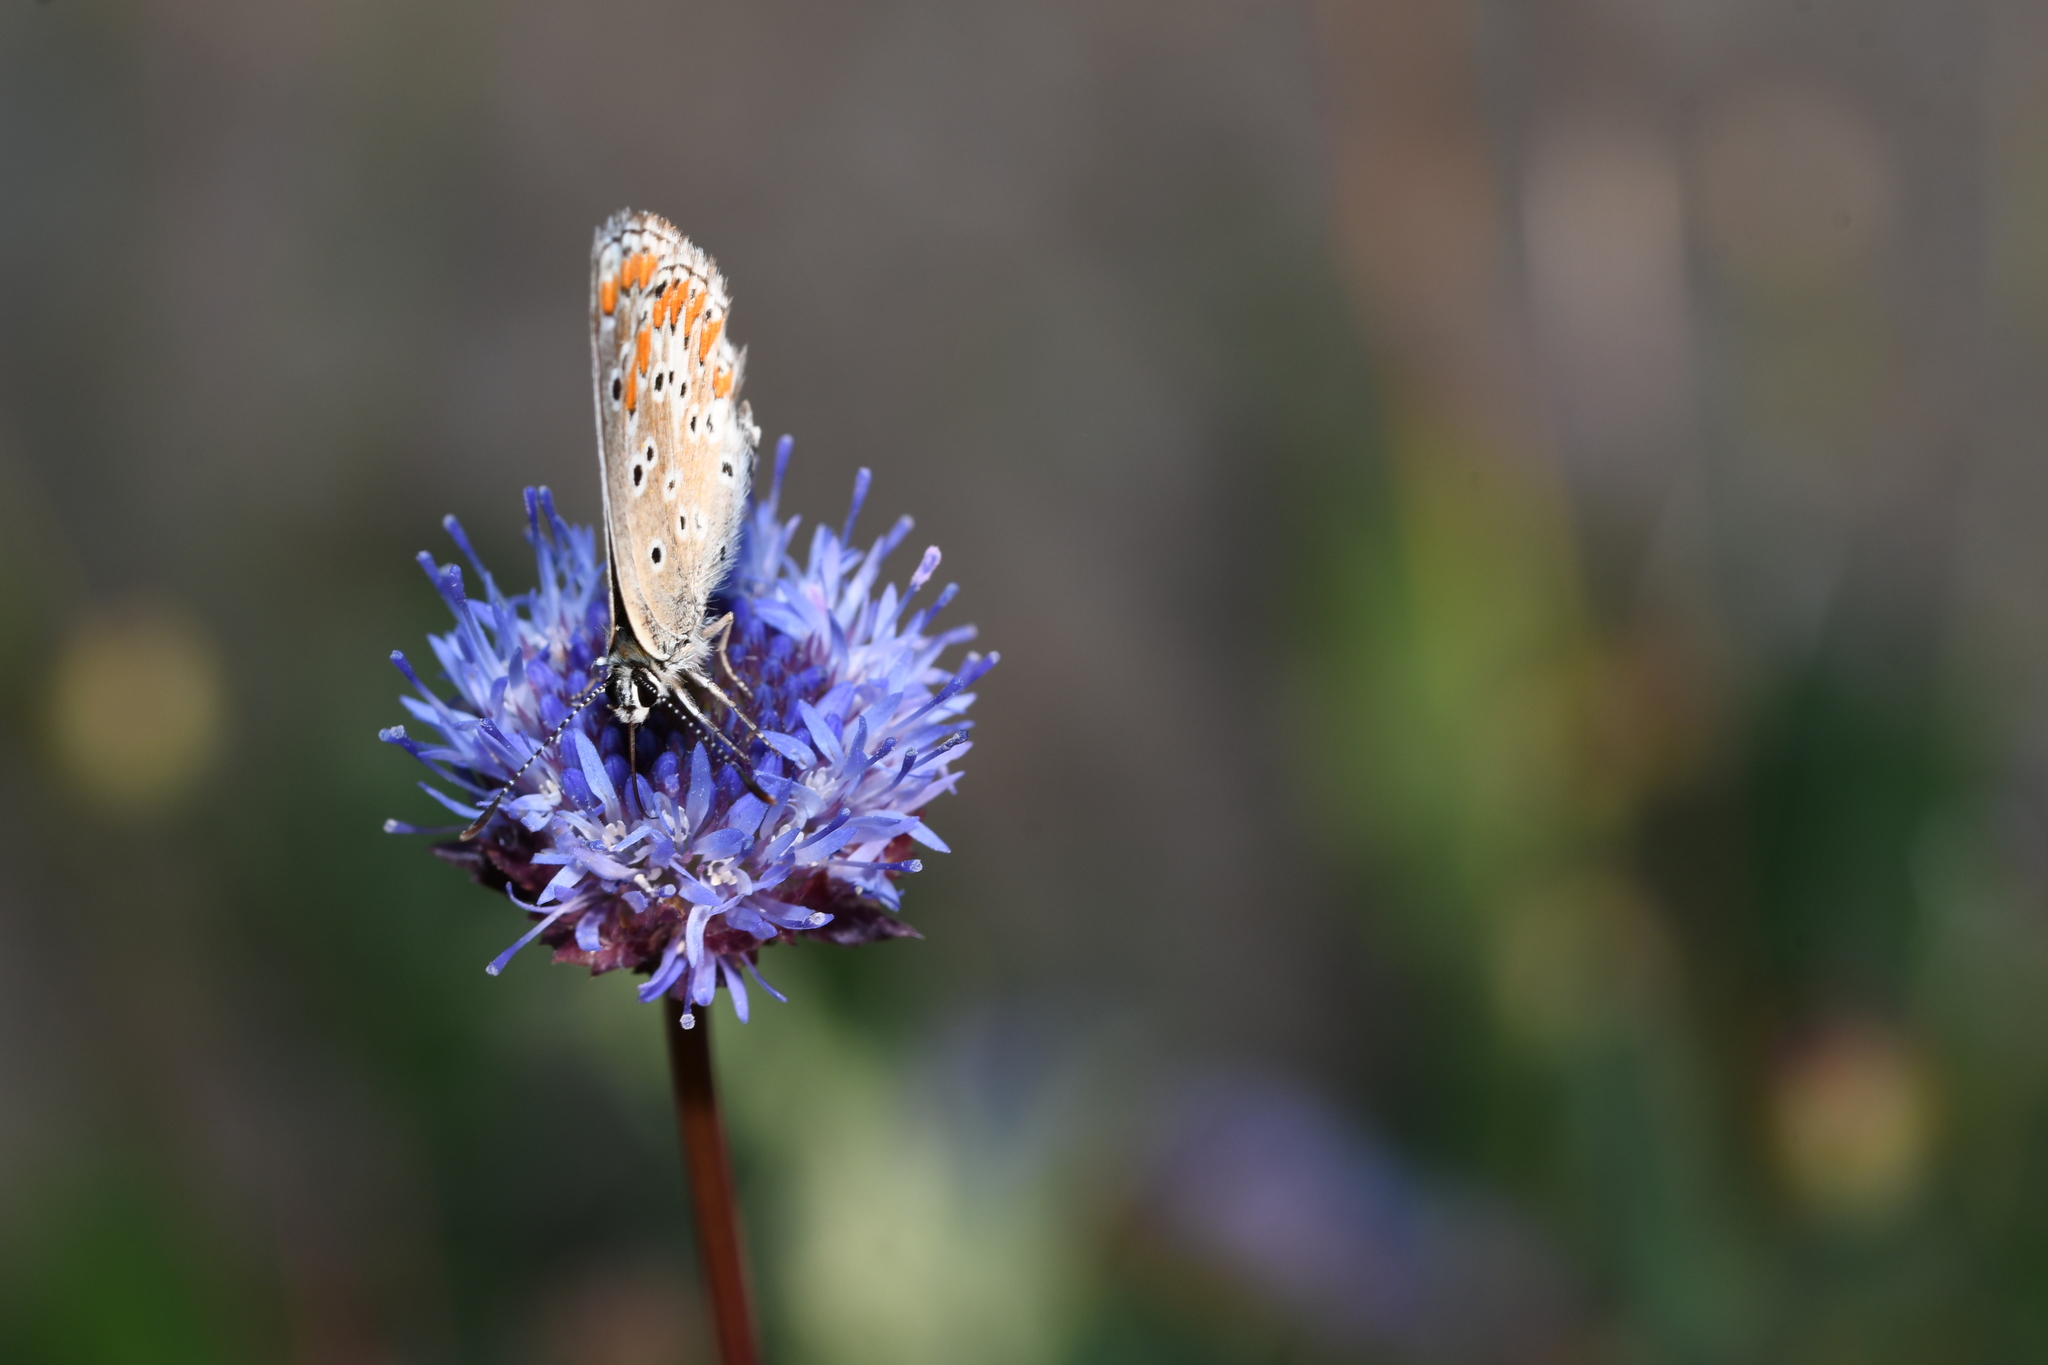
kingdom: Animalia
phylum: Arthropoda
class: Insecta
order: Lepidoptera
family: Lycaenidae
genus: Aricia
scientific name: Aricia cramera
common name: Eschscholtz´s brown  argus
